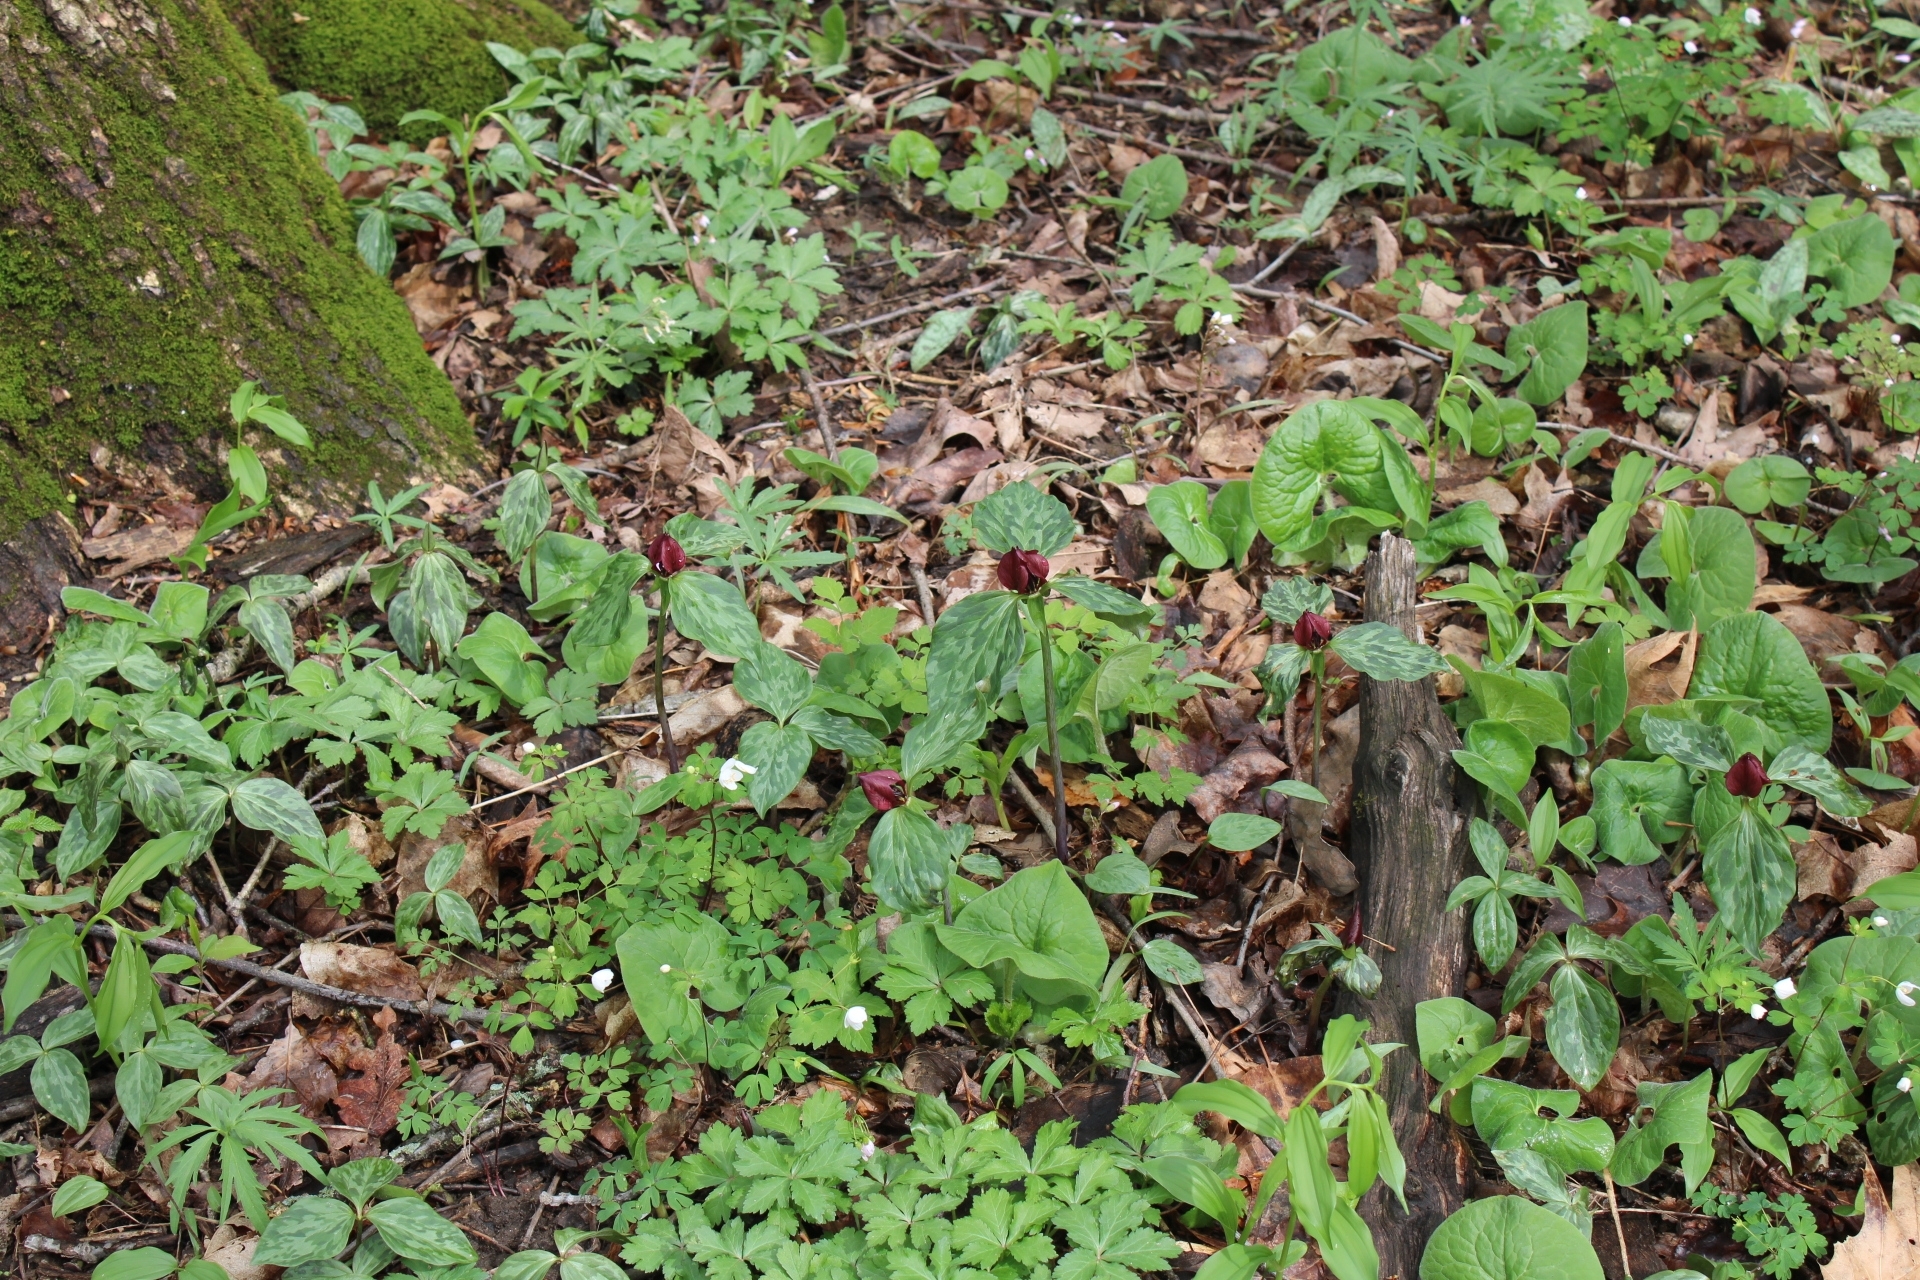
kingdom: Plantae
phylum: Tracheophyta
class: Liliopsida
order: Liliales
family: Melanthiaceae
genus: Trillium
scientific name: Trillium recurvatum
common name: Bloody butcher
